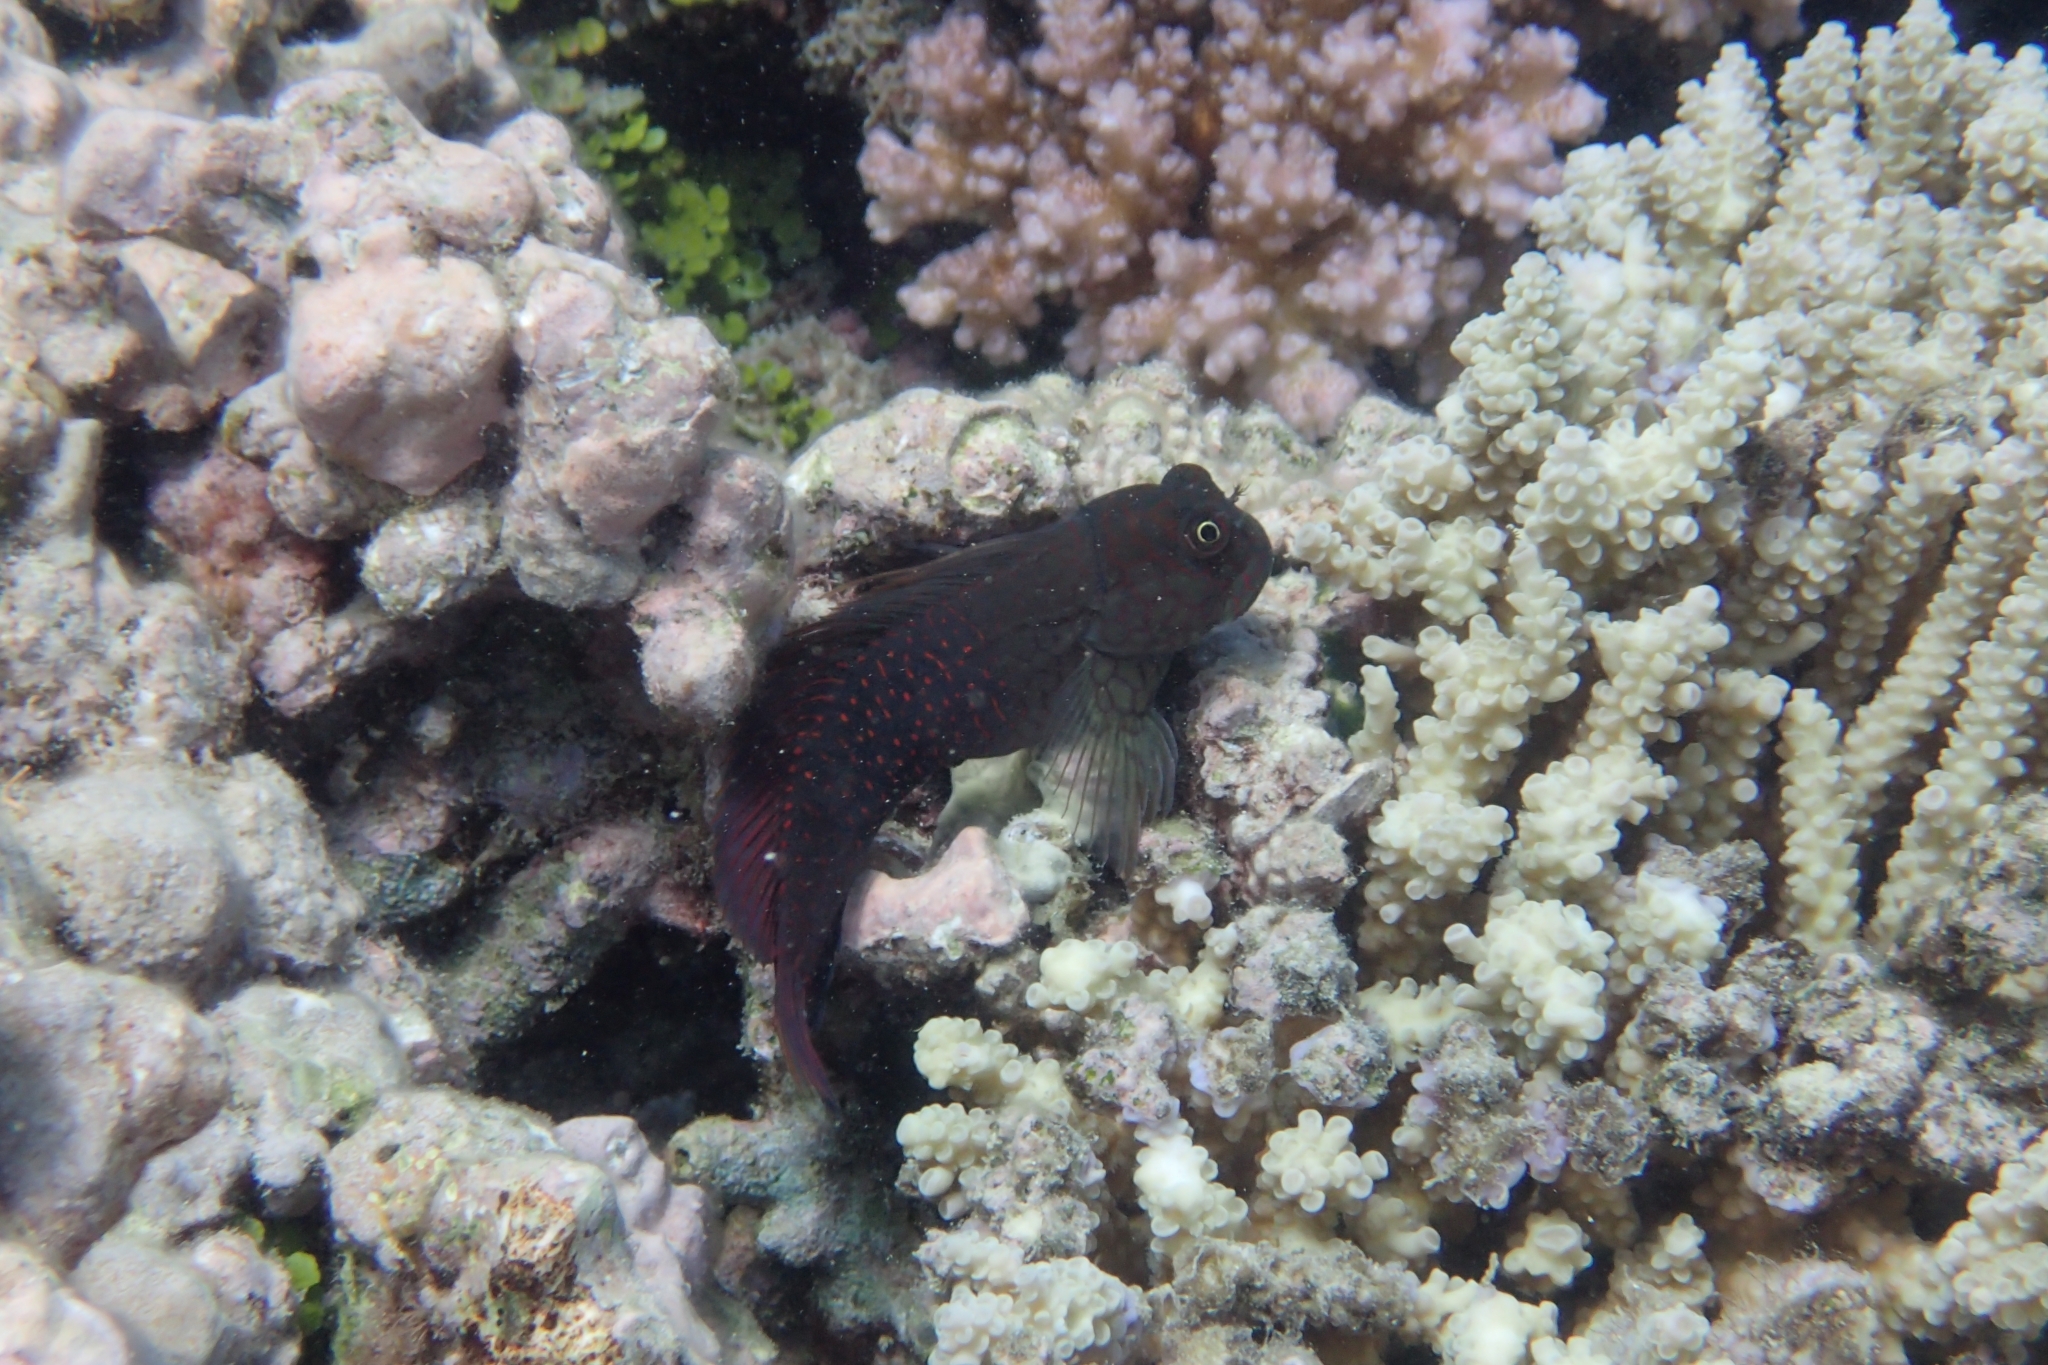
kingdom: Animalia
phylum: Chordata
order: Perciformes
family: Blenniidae
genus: Cirripectes
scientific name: Cirripectes stigmaticus
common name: Red-streaked blenny
